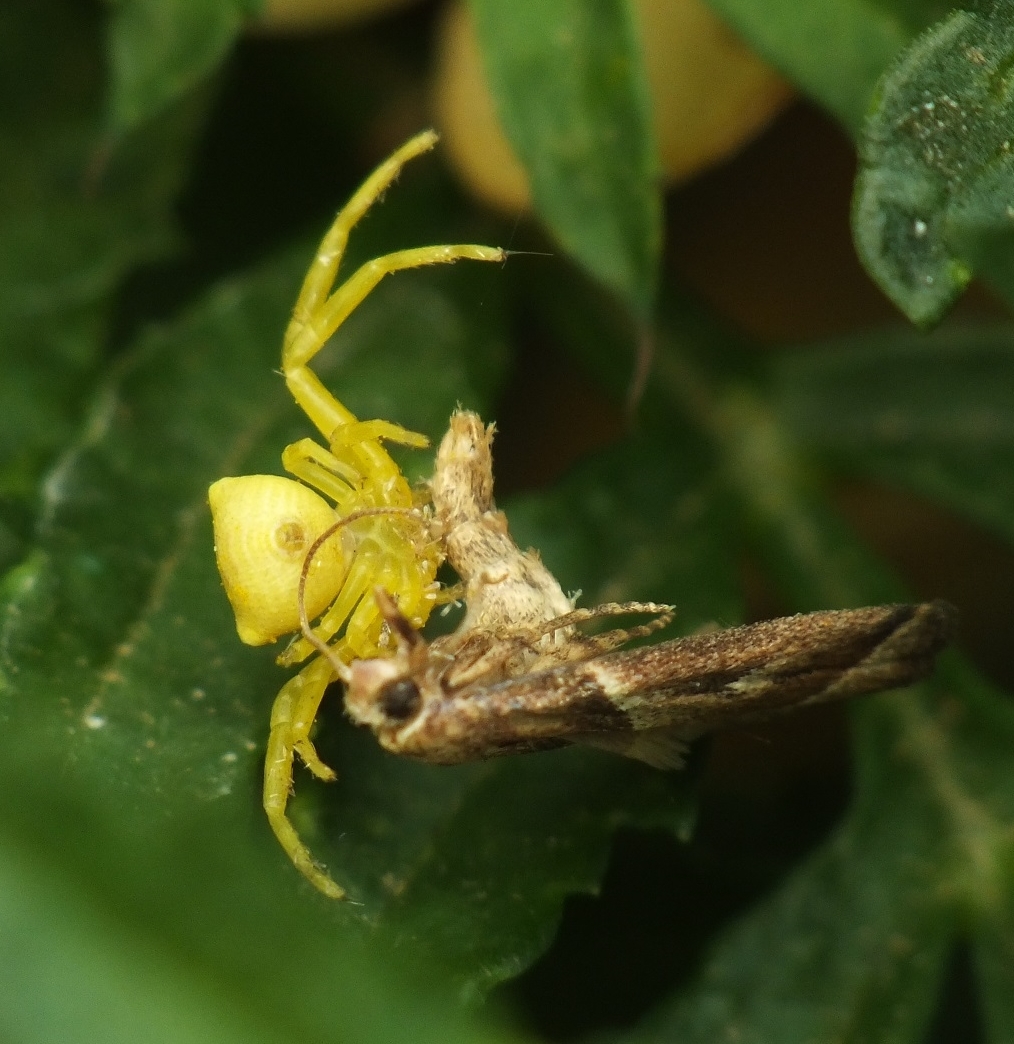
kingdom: Animalia
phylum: Arthropoda
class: Arachnida
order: Araneae
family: Thomisidae
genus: Thomisus
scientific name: Thomisus onustus
